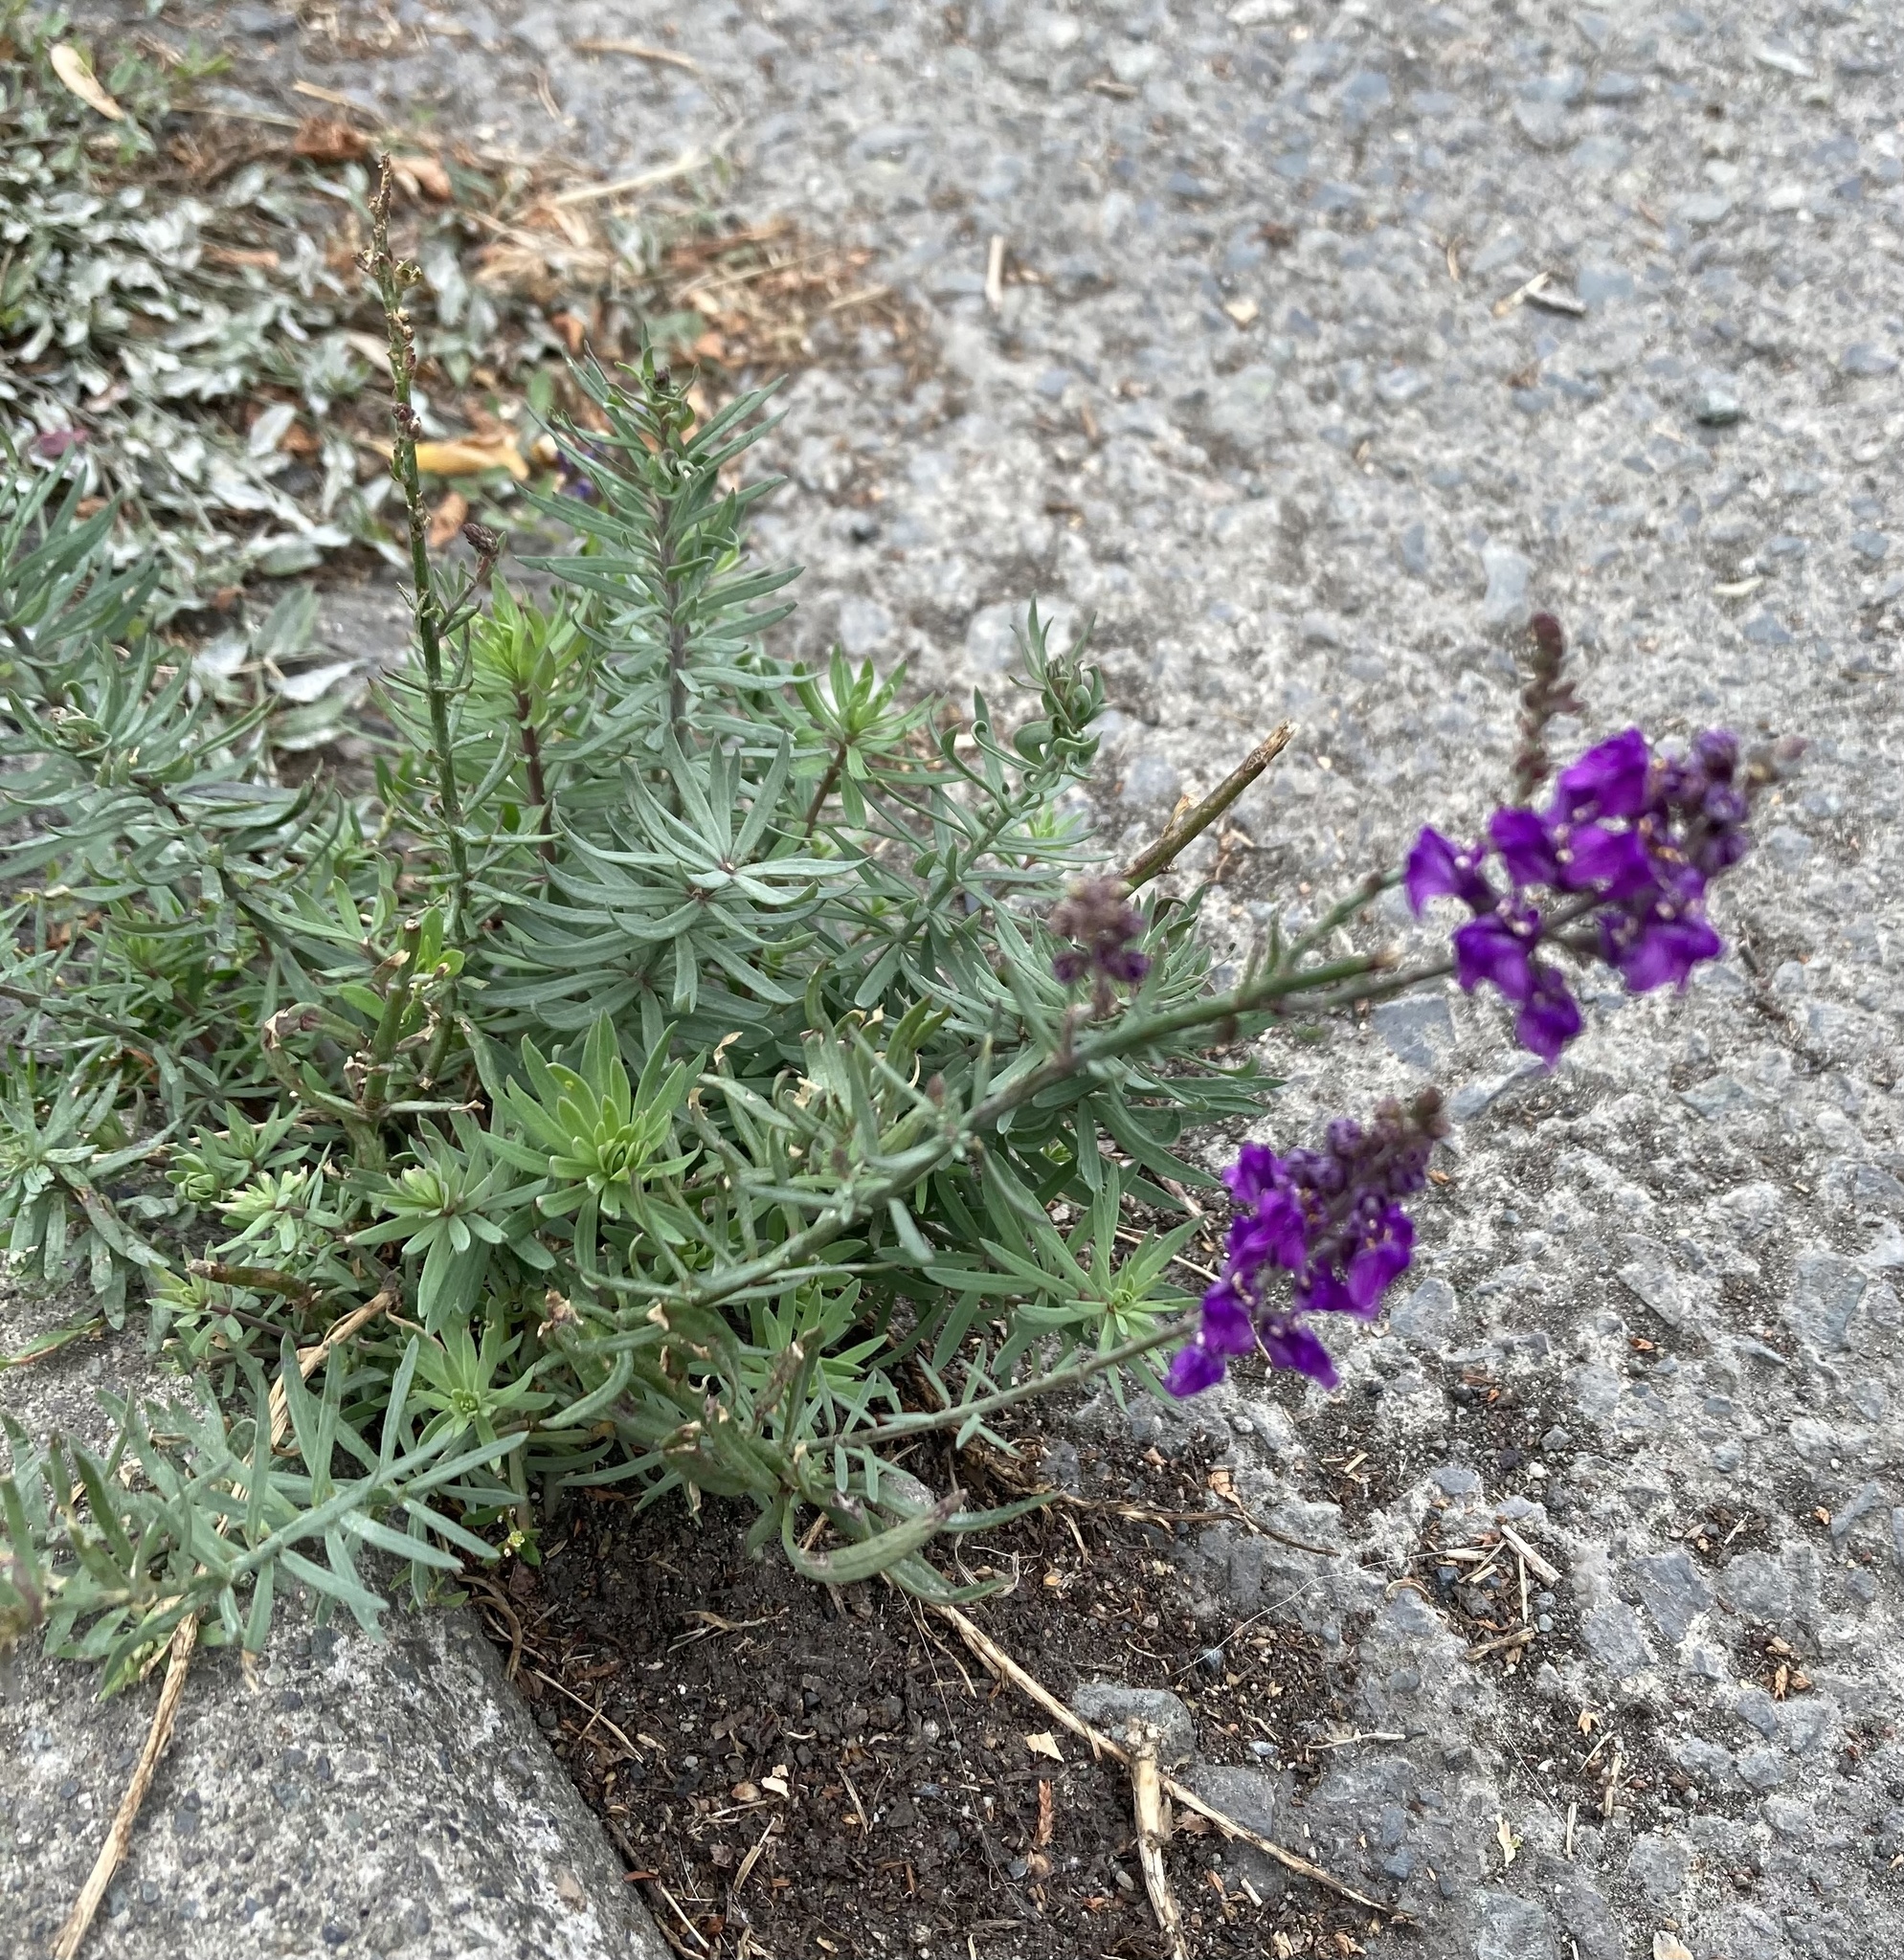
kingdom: Plantae
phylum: Tracheophyta
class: Magnoliopsida
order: Lamiales
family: Plantaginaceae
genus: Linaria
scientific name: Linaria purpurea
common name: Purple toadflax
